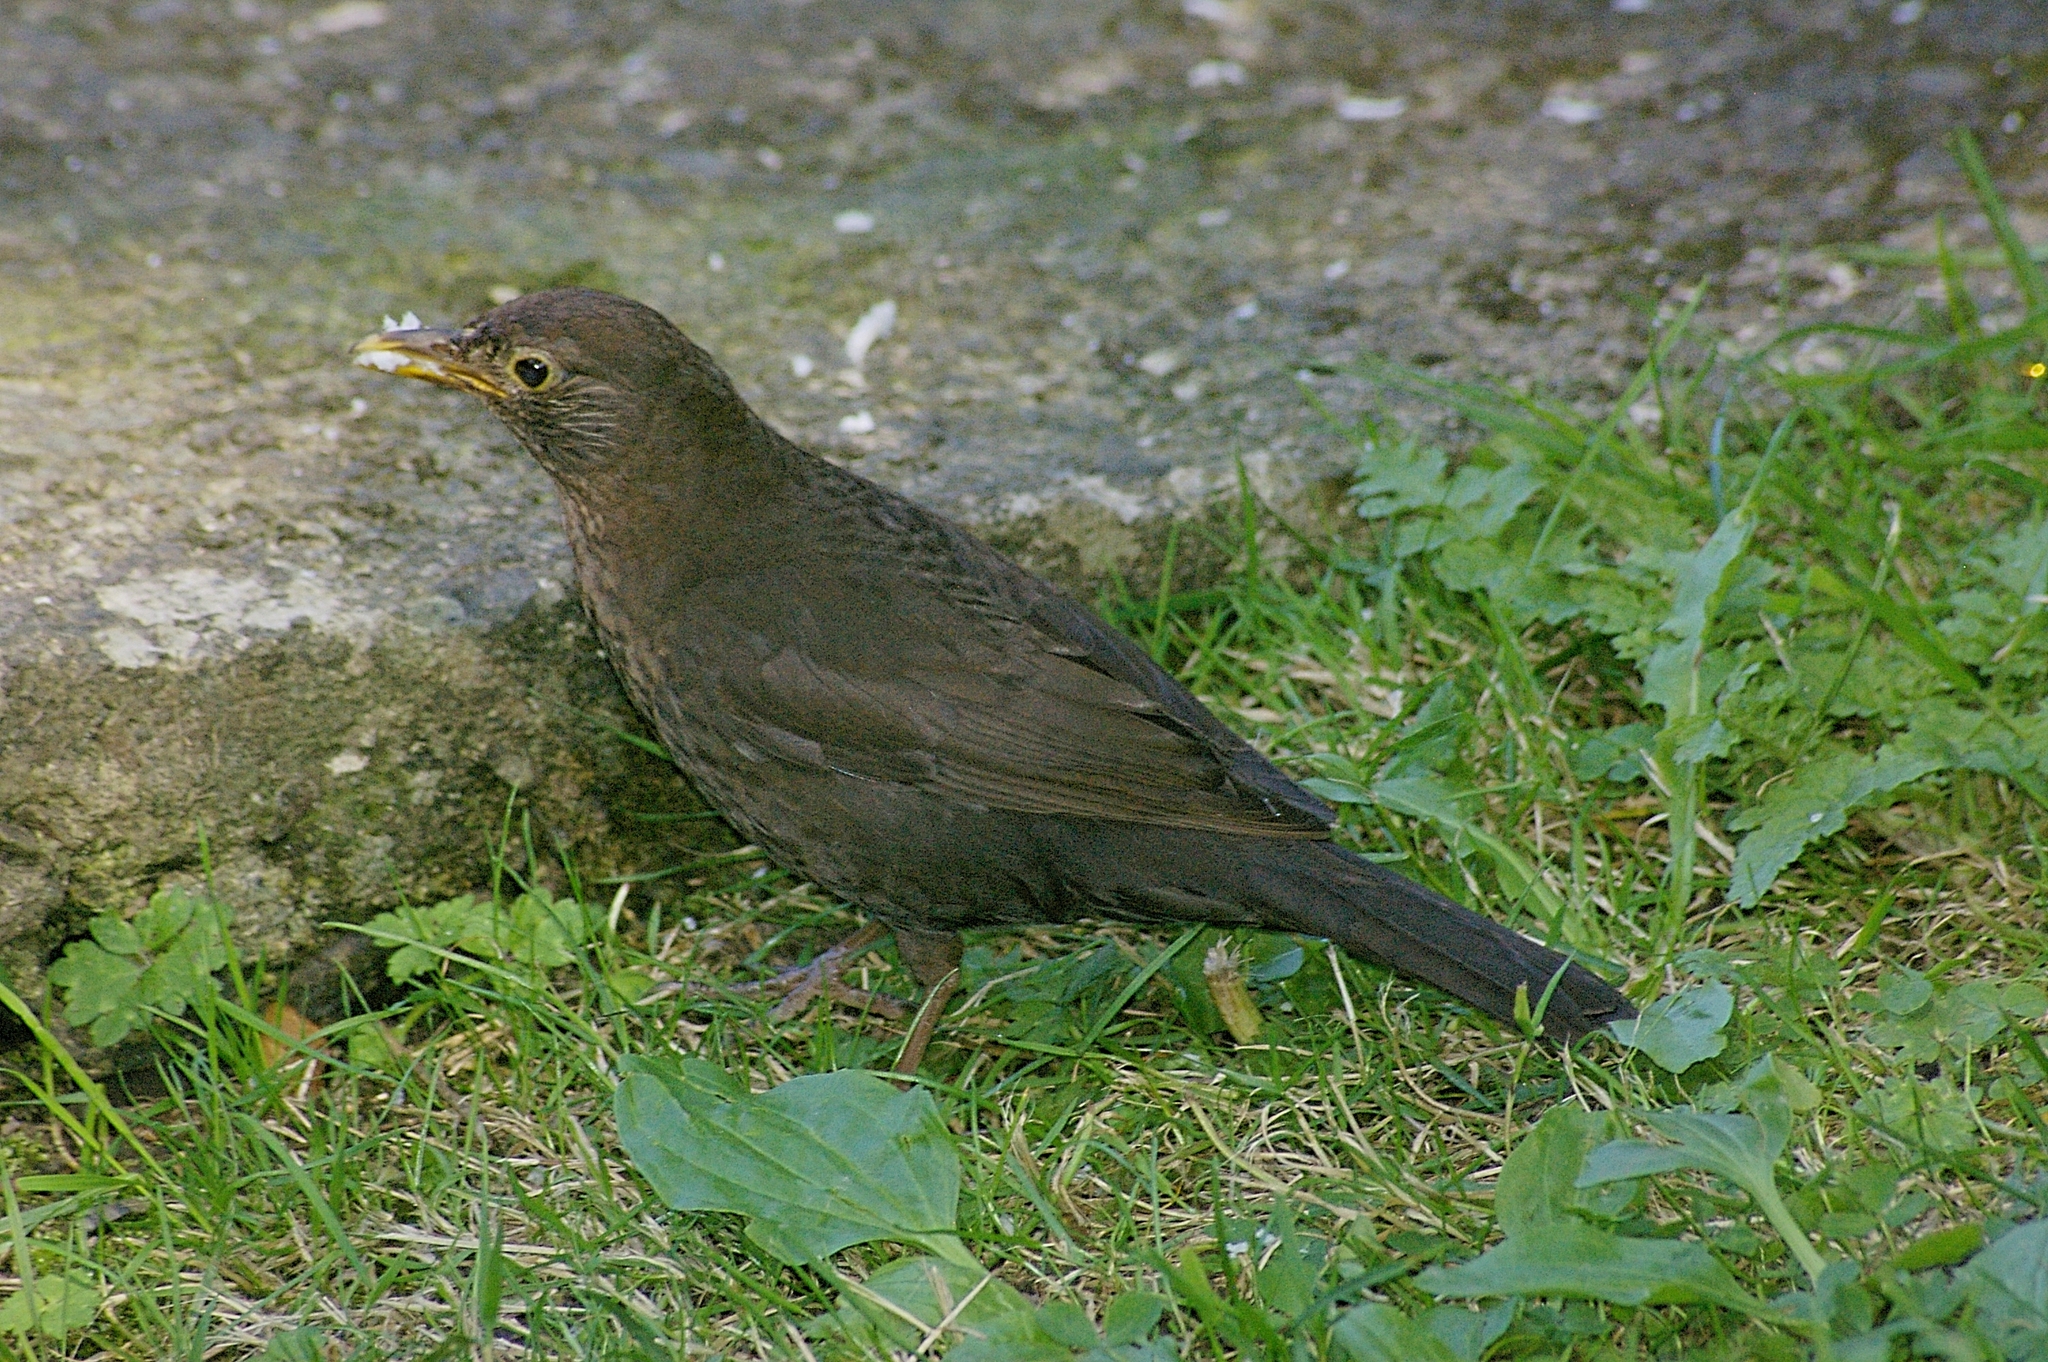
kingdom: Animalia
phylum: Chordata
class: Aves
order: Passeriformes
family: Turdidae
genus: Turdus
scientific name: Turdus merula
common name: Common blackbird
